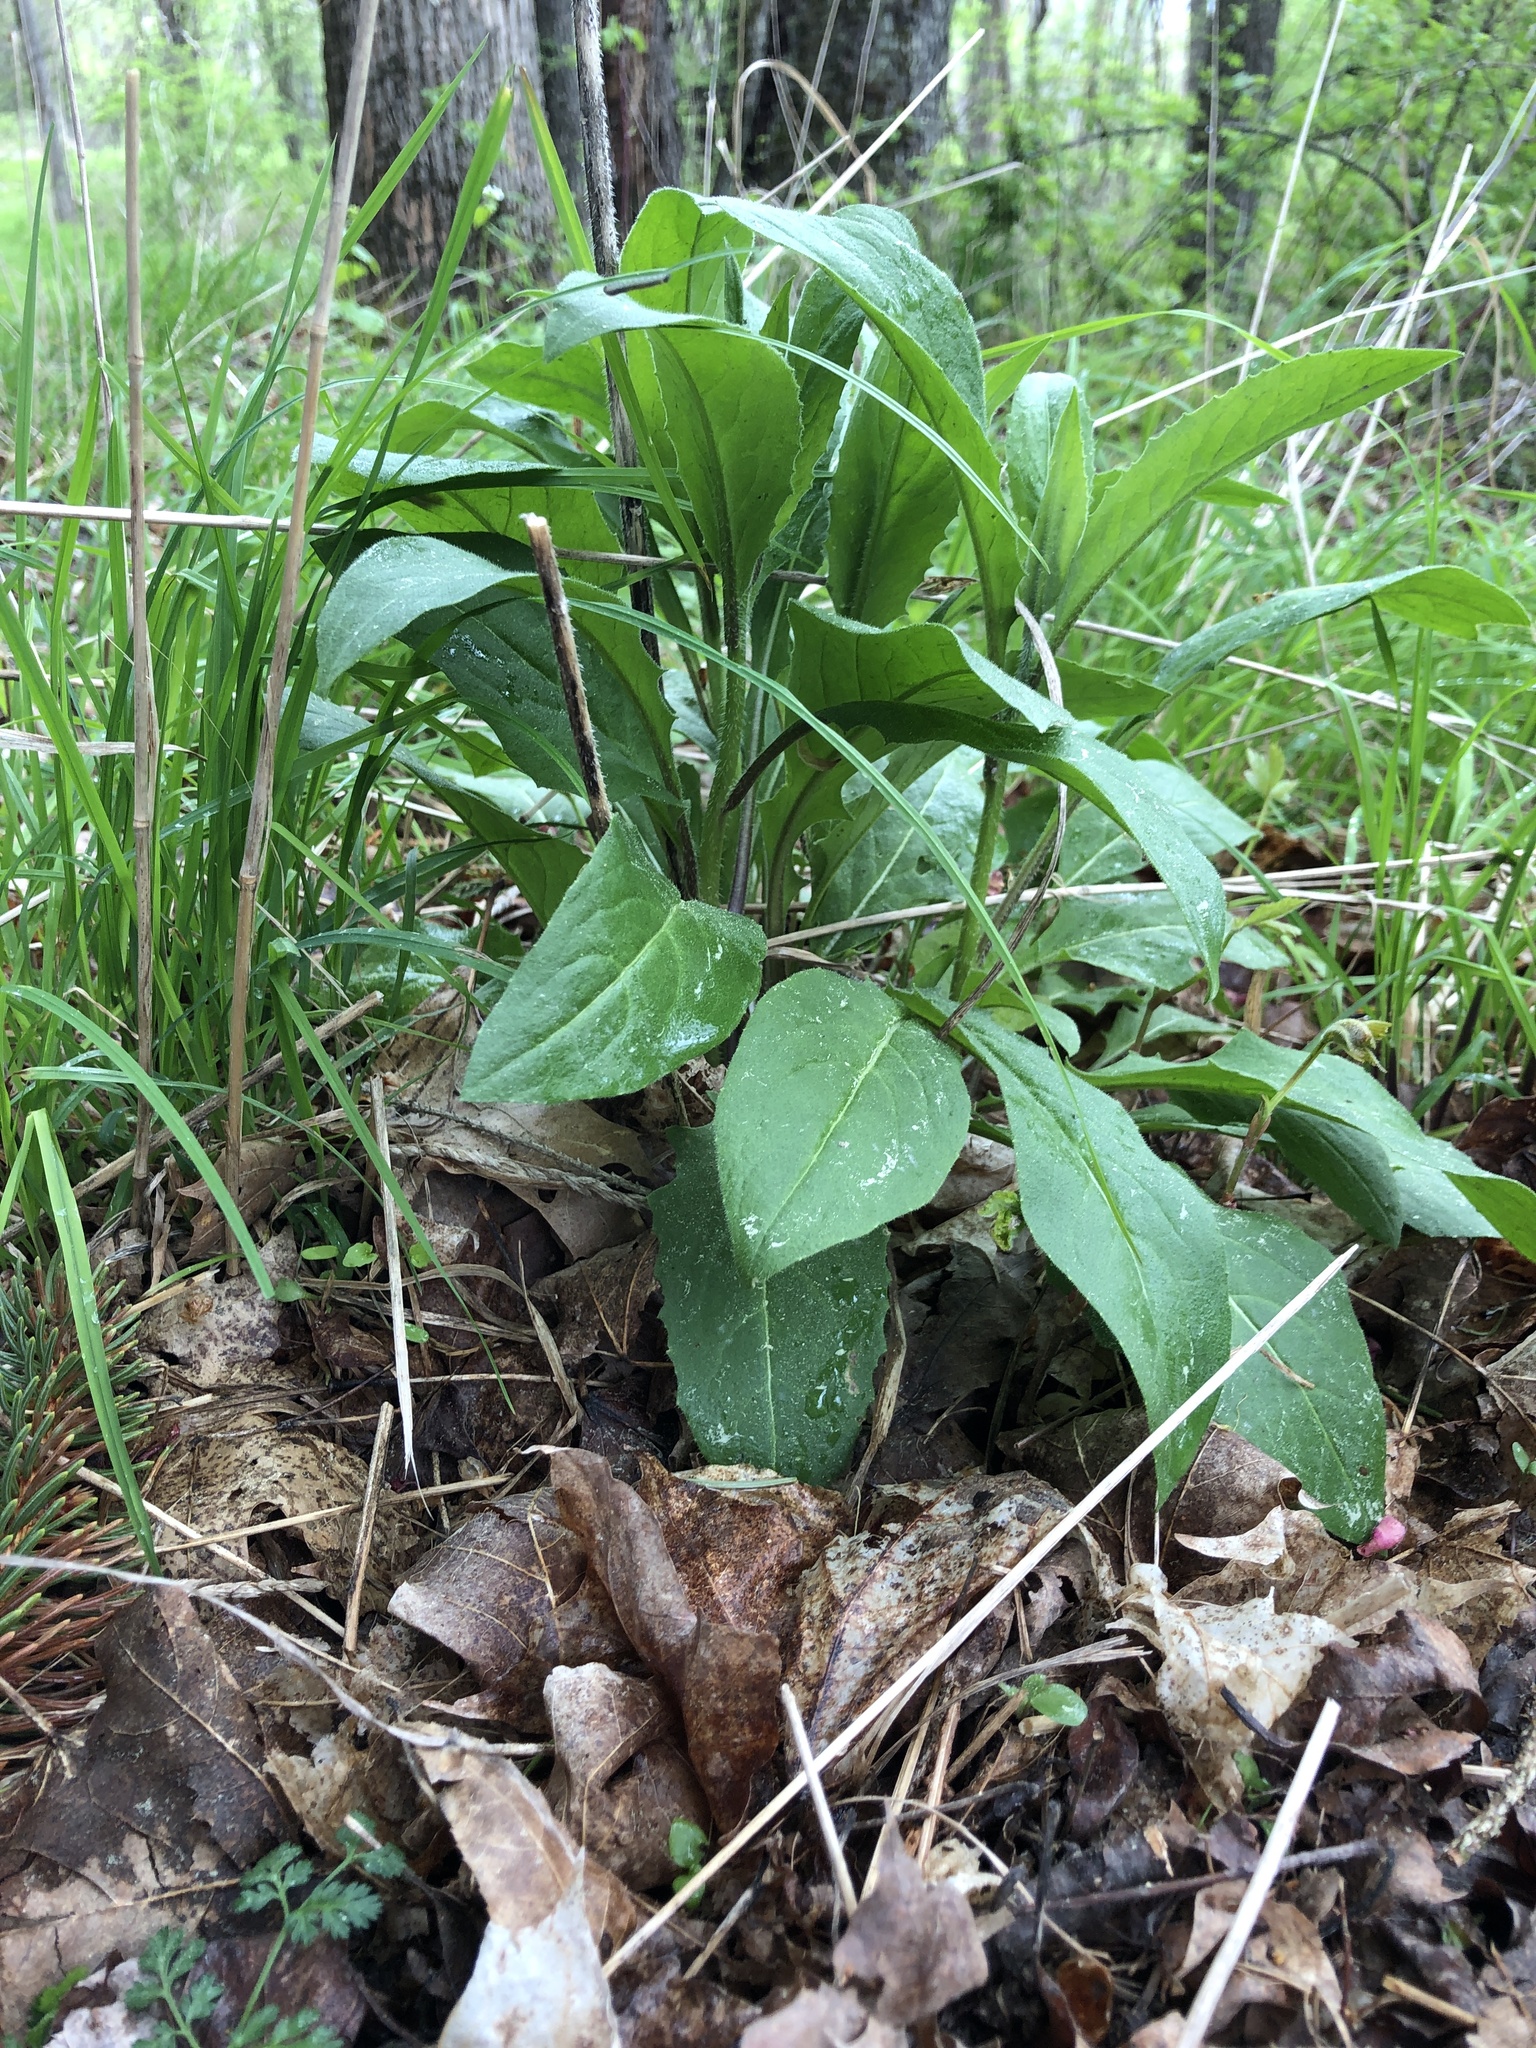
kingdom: Plantae
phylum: Tracheophyta
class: Magnoliopsida
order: Brassicales
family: Brassicaceae
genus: Hesperis
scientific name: Hesperis matronalis
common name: Dame's-violet
